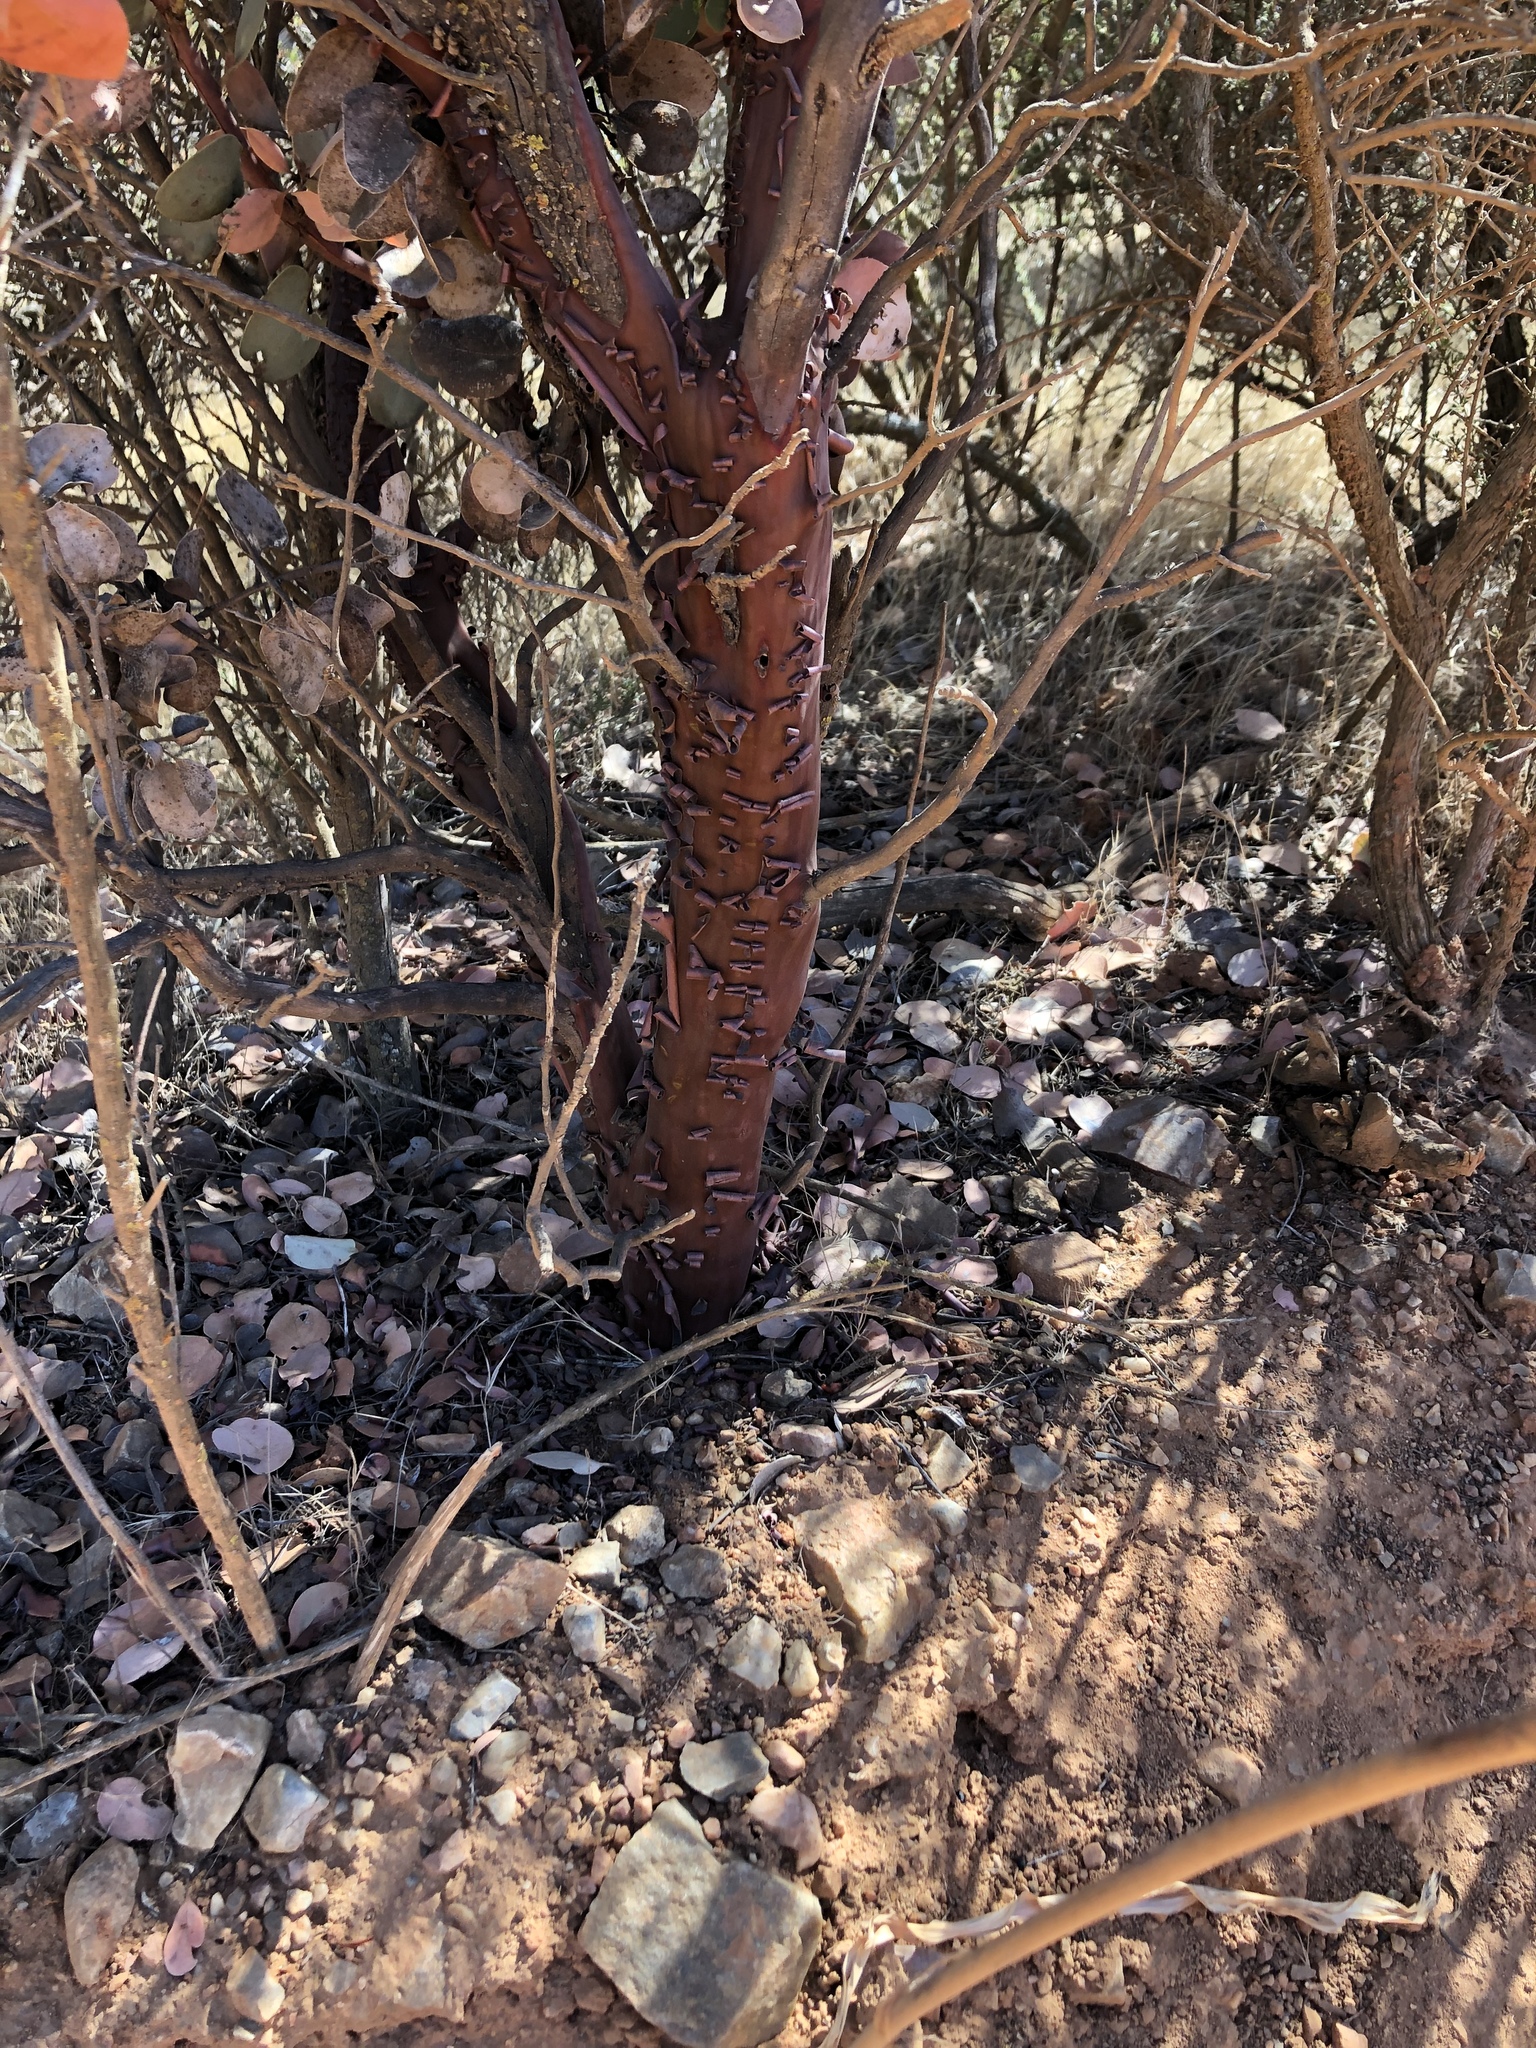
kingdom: Plantae
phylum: Tracheophyta
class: Magnoliopsida
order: Ericales
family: Ericaceae
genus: Arctostaphylos
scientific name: Arctostaphylos glauca
